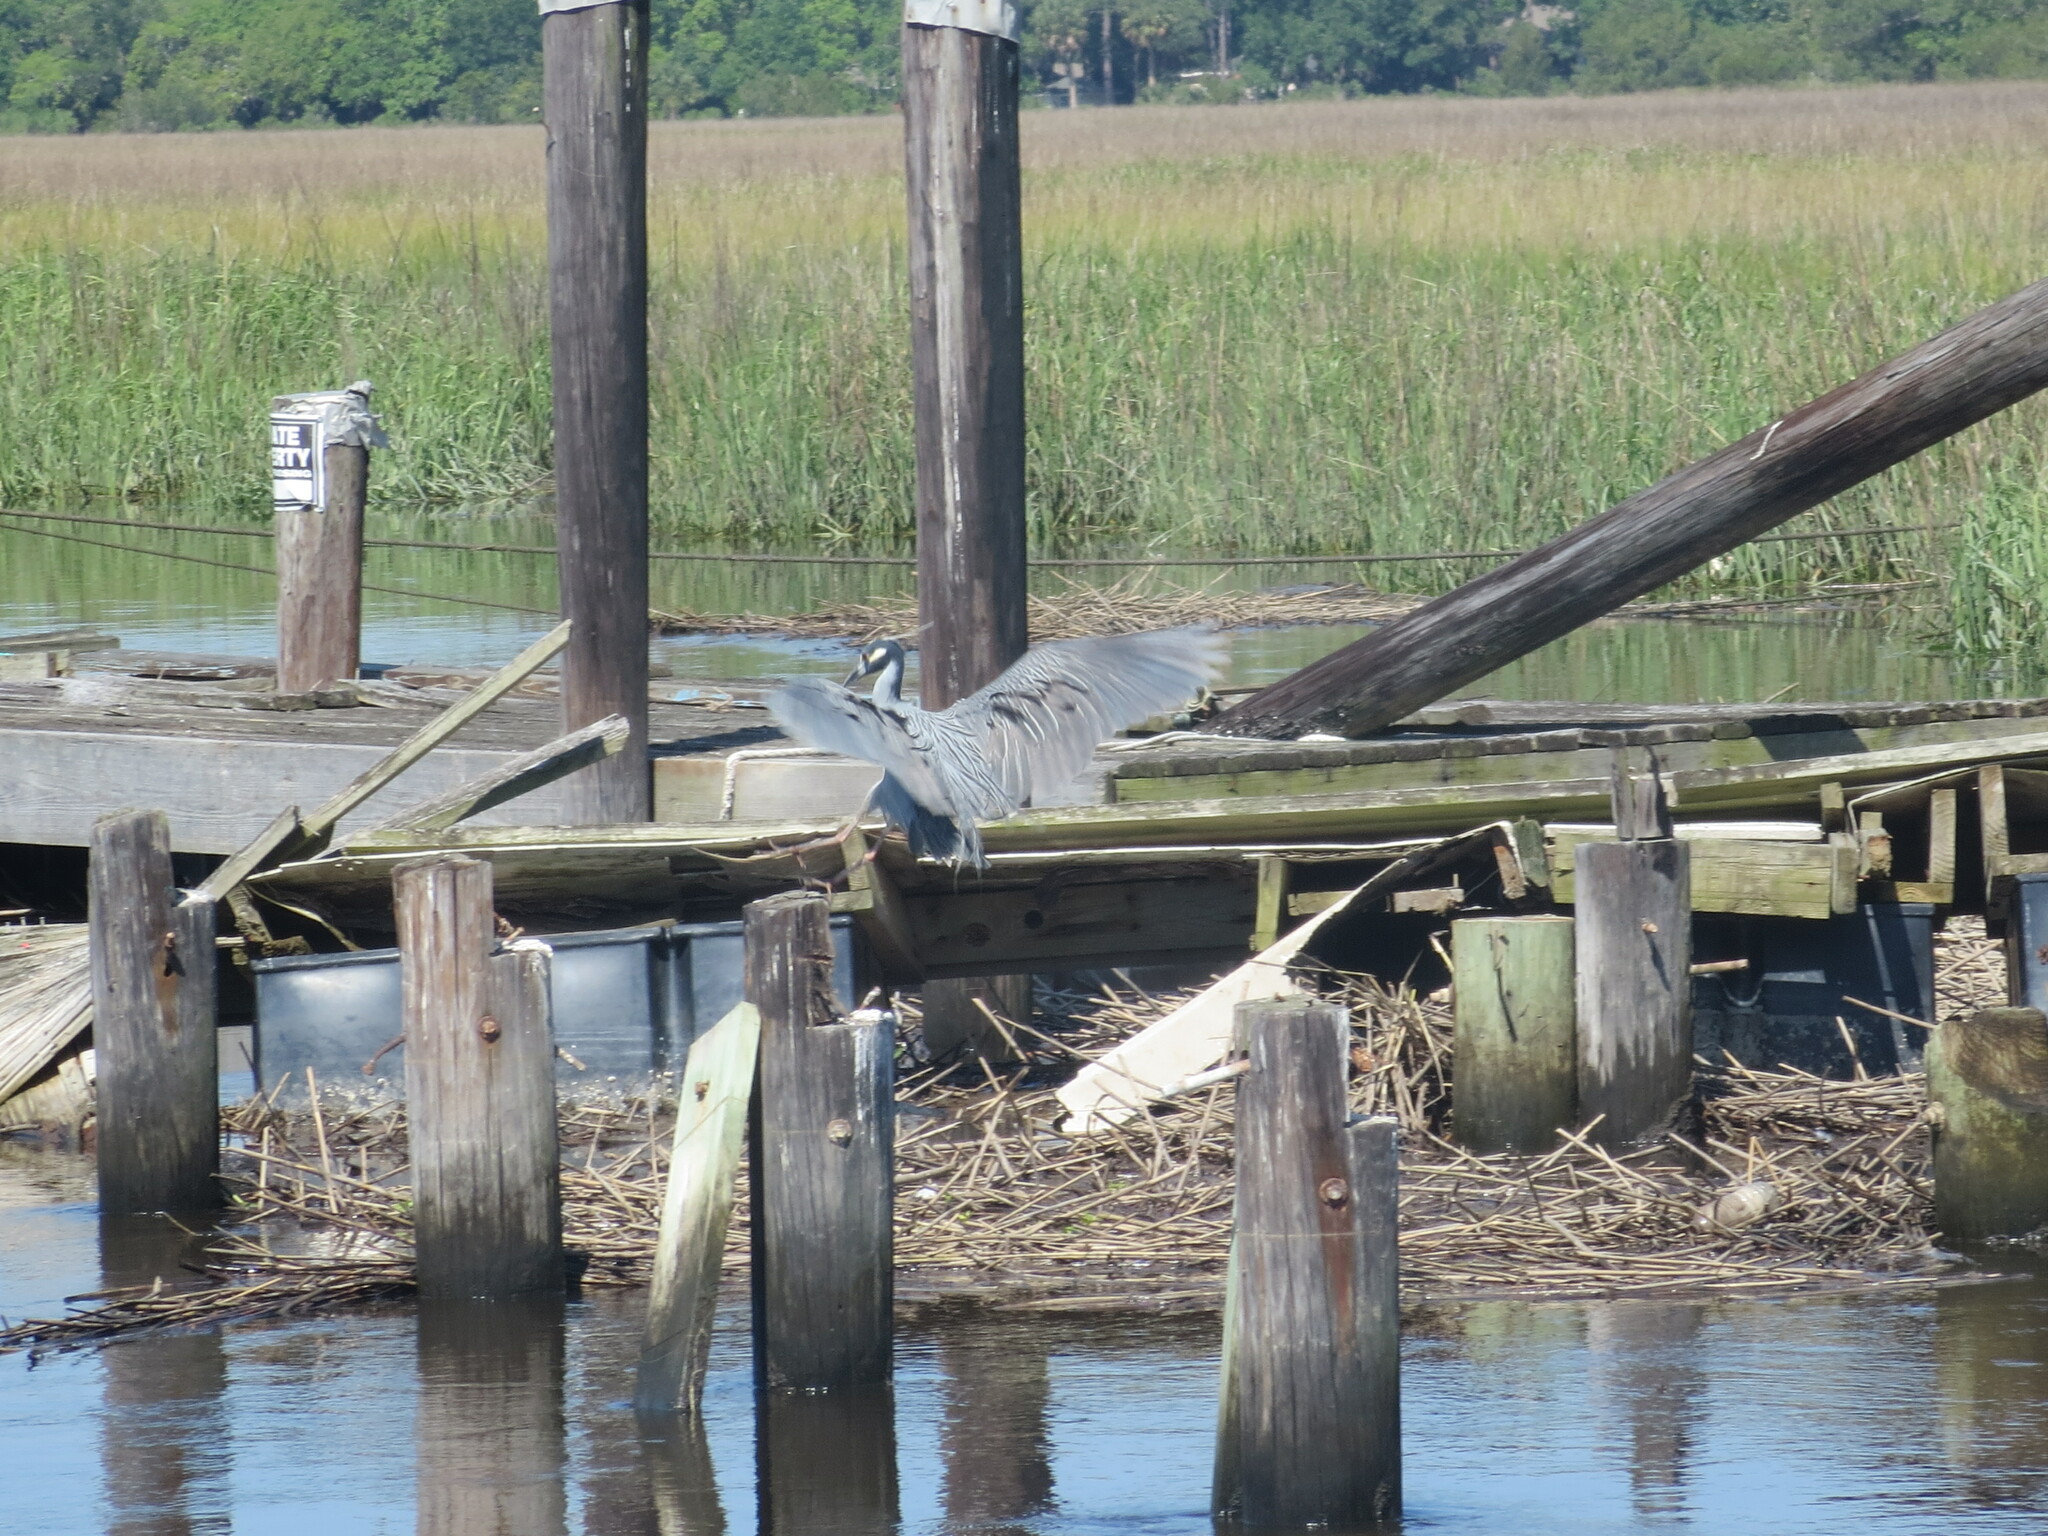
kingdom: Animalia
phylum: Chordata
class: Aves
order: Pelecaniformes
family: Ardeidae
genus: Nyctanassa
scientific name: Nyctanassa violacea
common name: Yellow-crowned night heron
